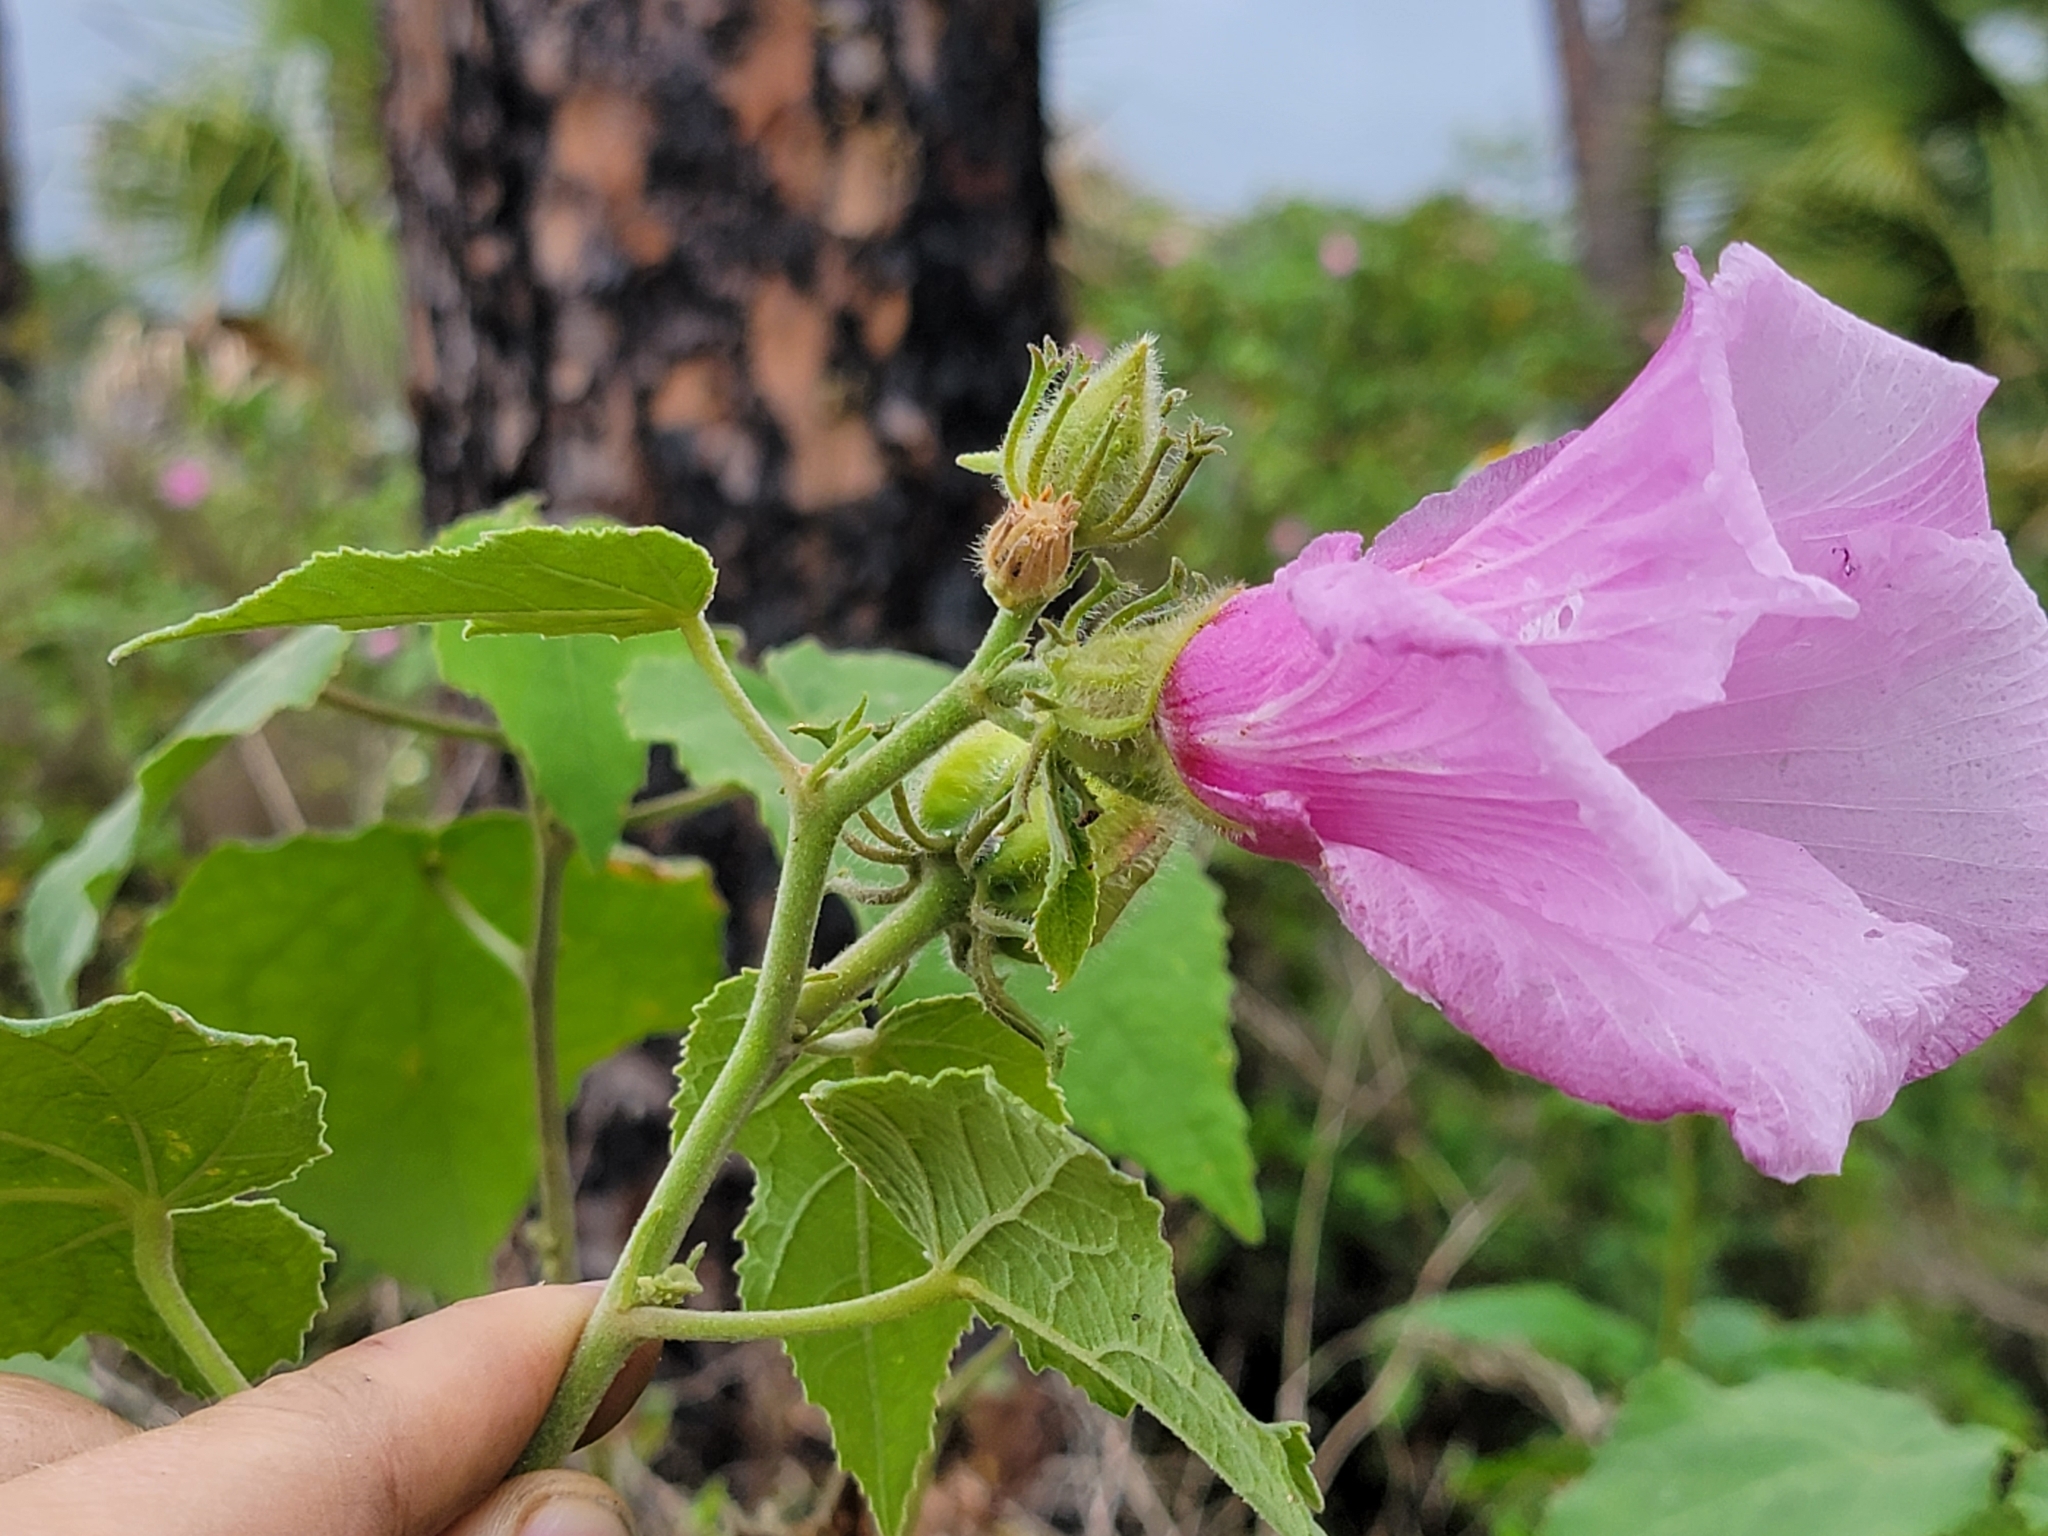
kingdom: Plantae
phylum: Tracheophyta
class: Magnoliopsida
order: Malvales
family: Malvaceae
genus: Hibiscus
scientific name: Hibiscus furcellatus
